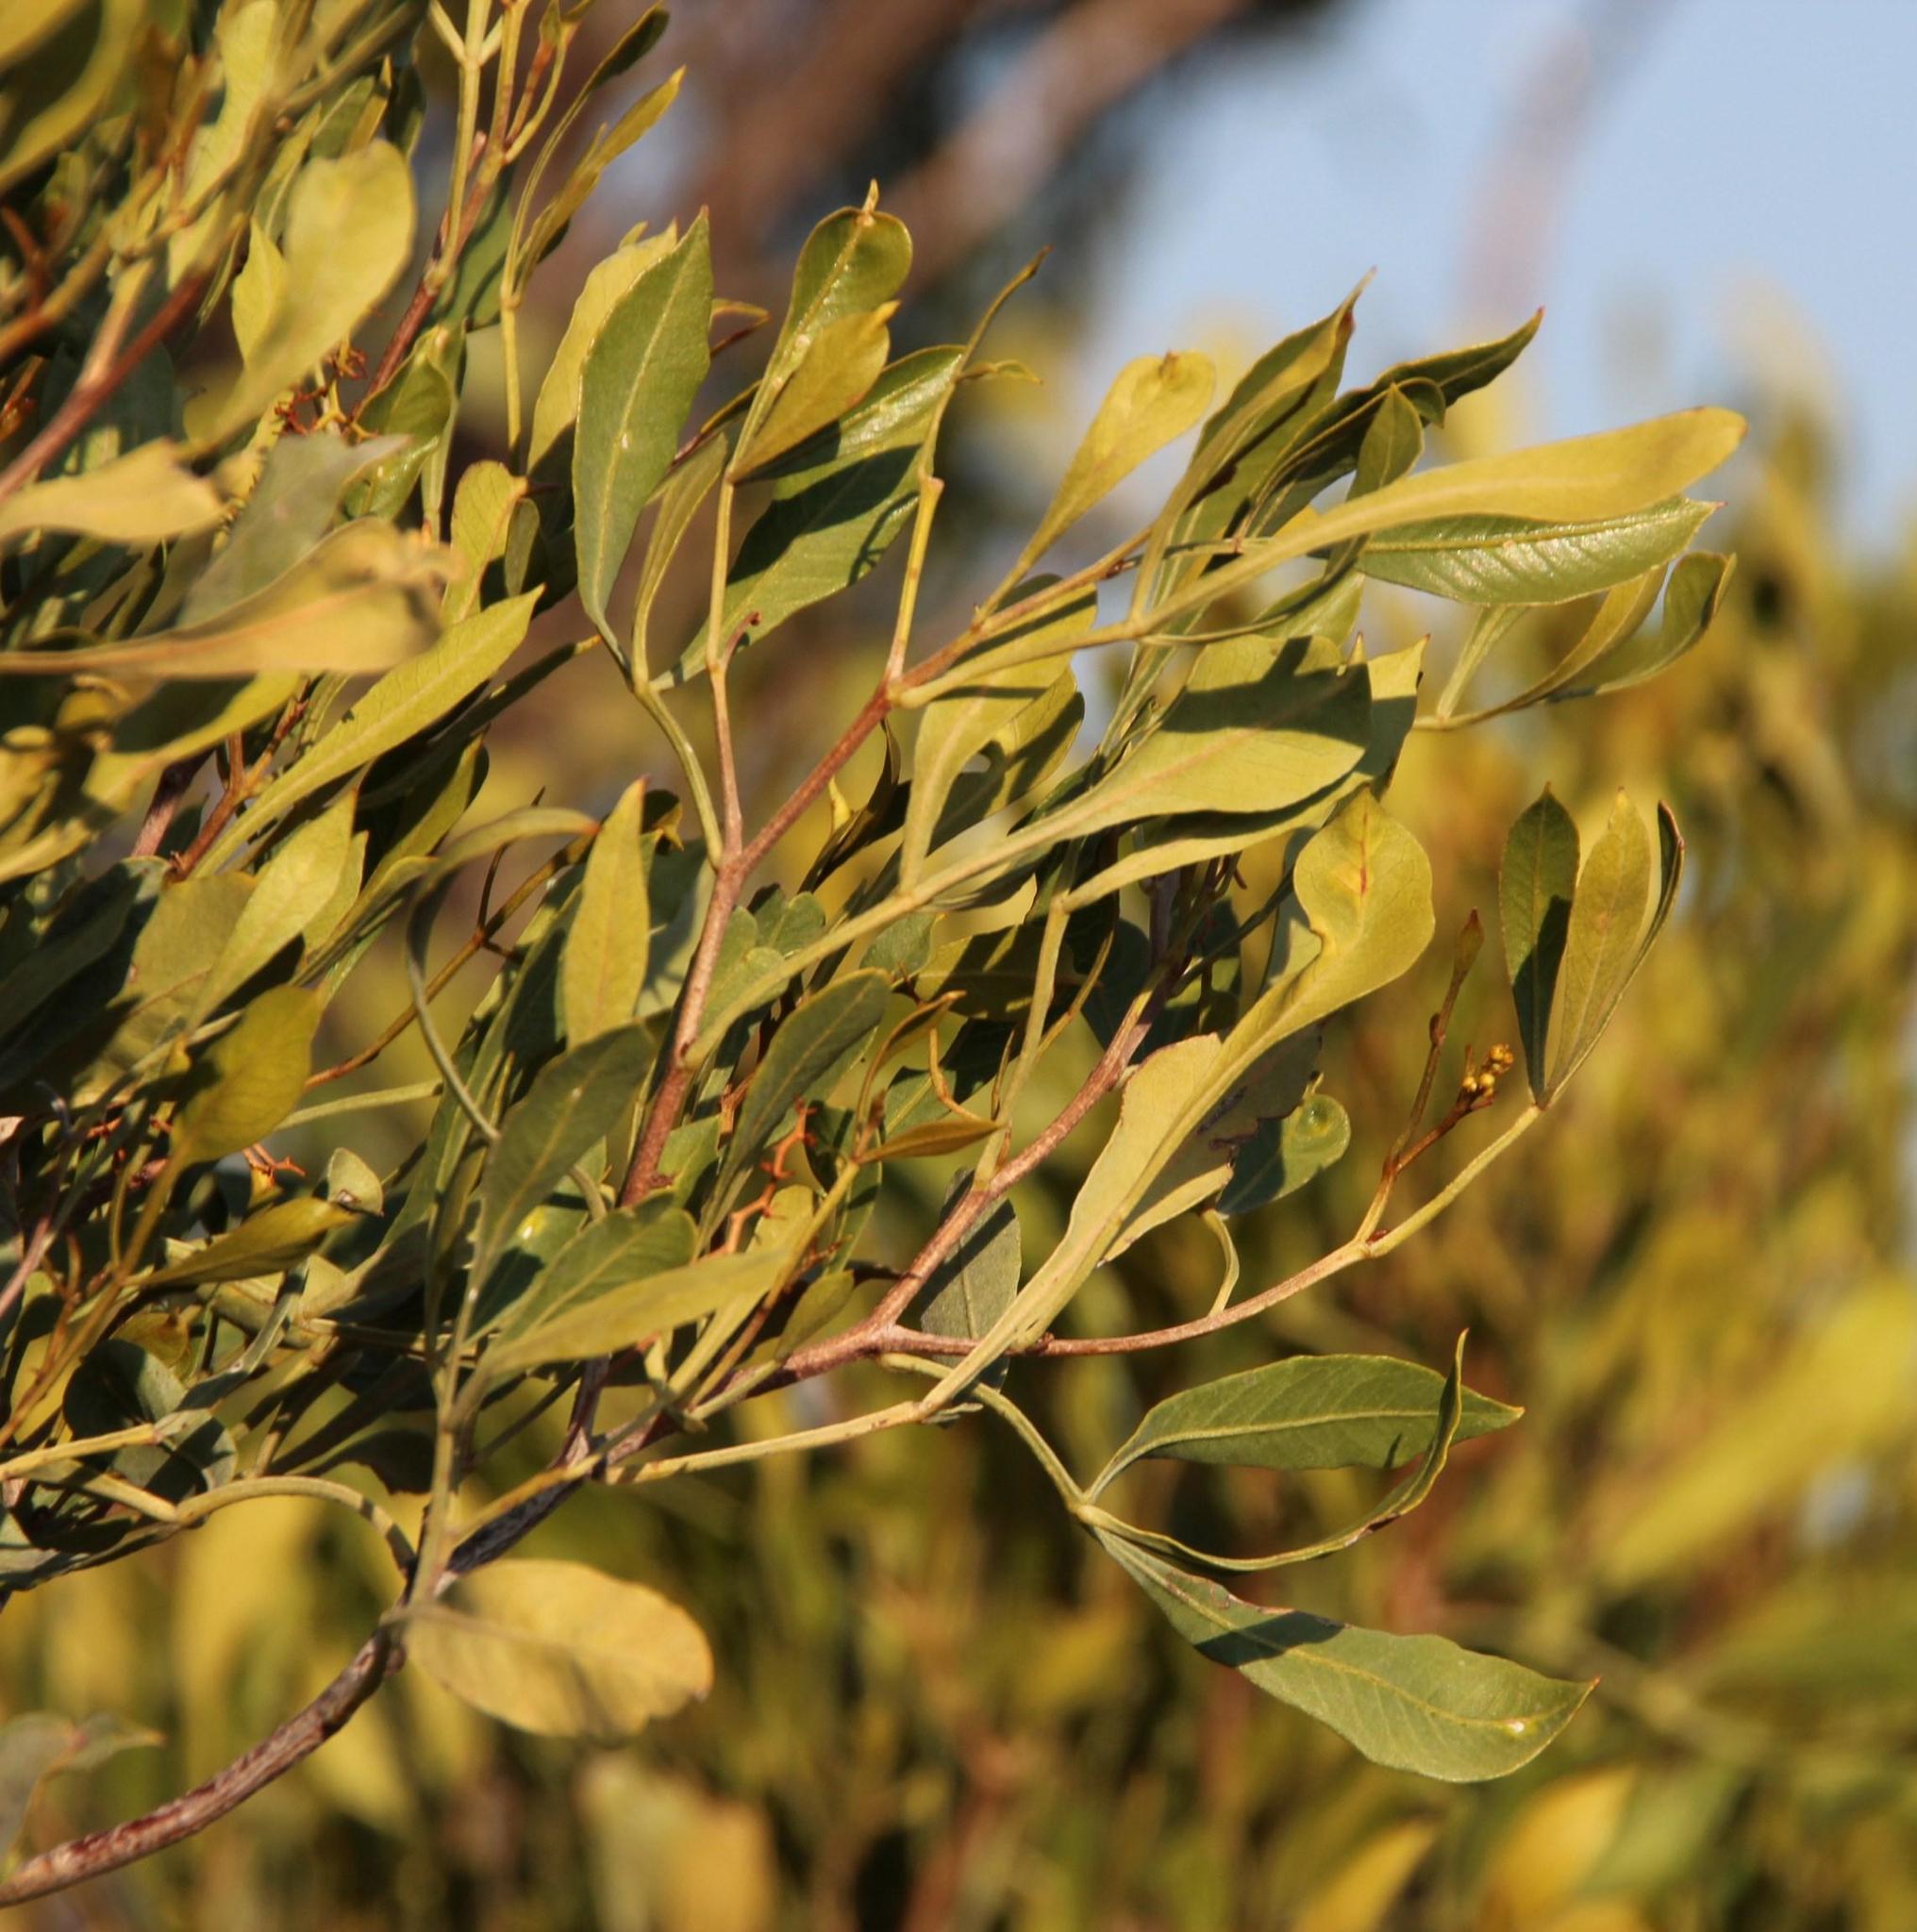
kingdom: Plantae
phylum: Tracheophyta
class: Magnoliopsida
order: Sapindales
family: Anacardiaceae
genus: Searsia
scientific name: Searsia pallens
